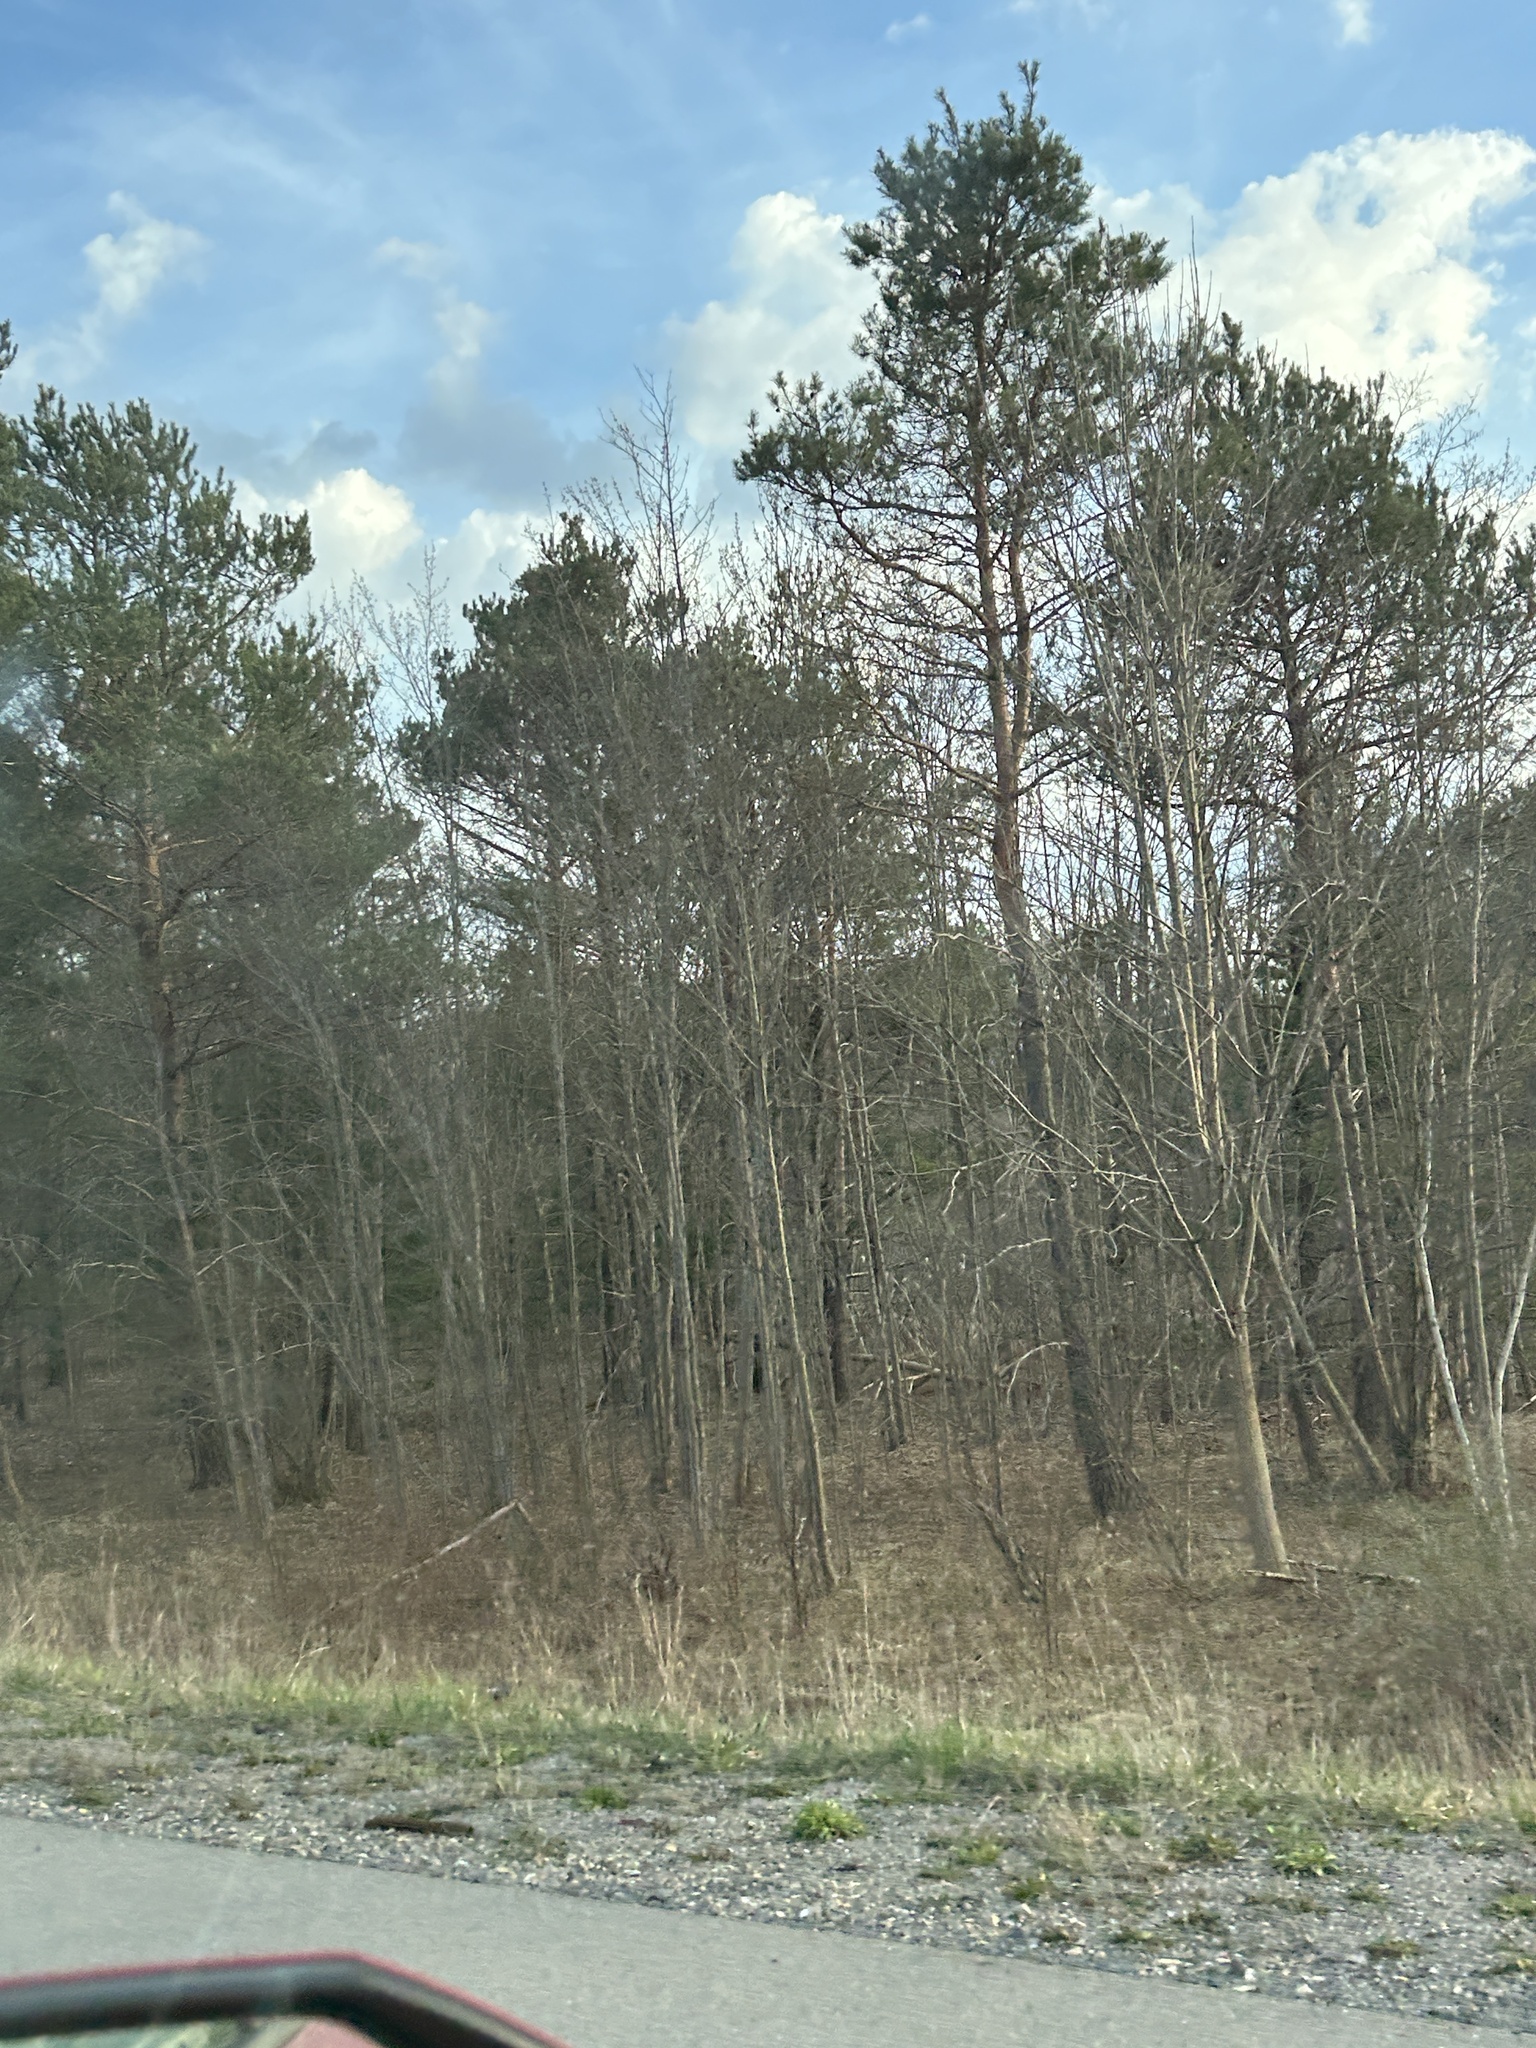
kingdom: Plantae
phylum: Tracheophyta
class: Pinopsida
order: Pinales
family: Pinaceae
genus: Pinus
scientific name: Pinus sylvestris
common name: Scots pine
